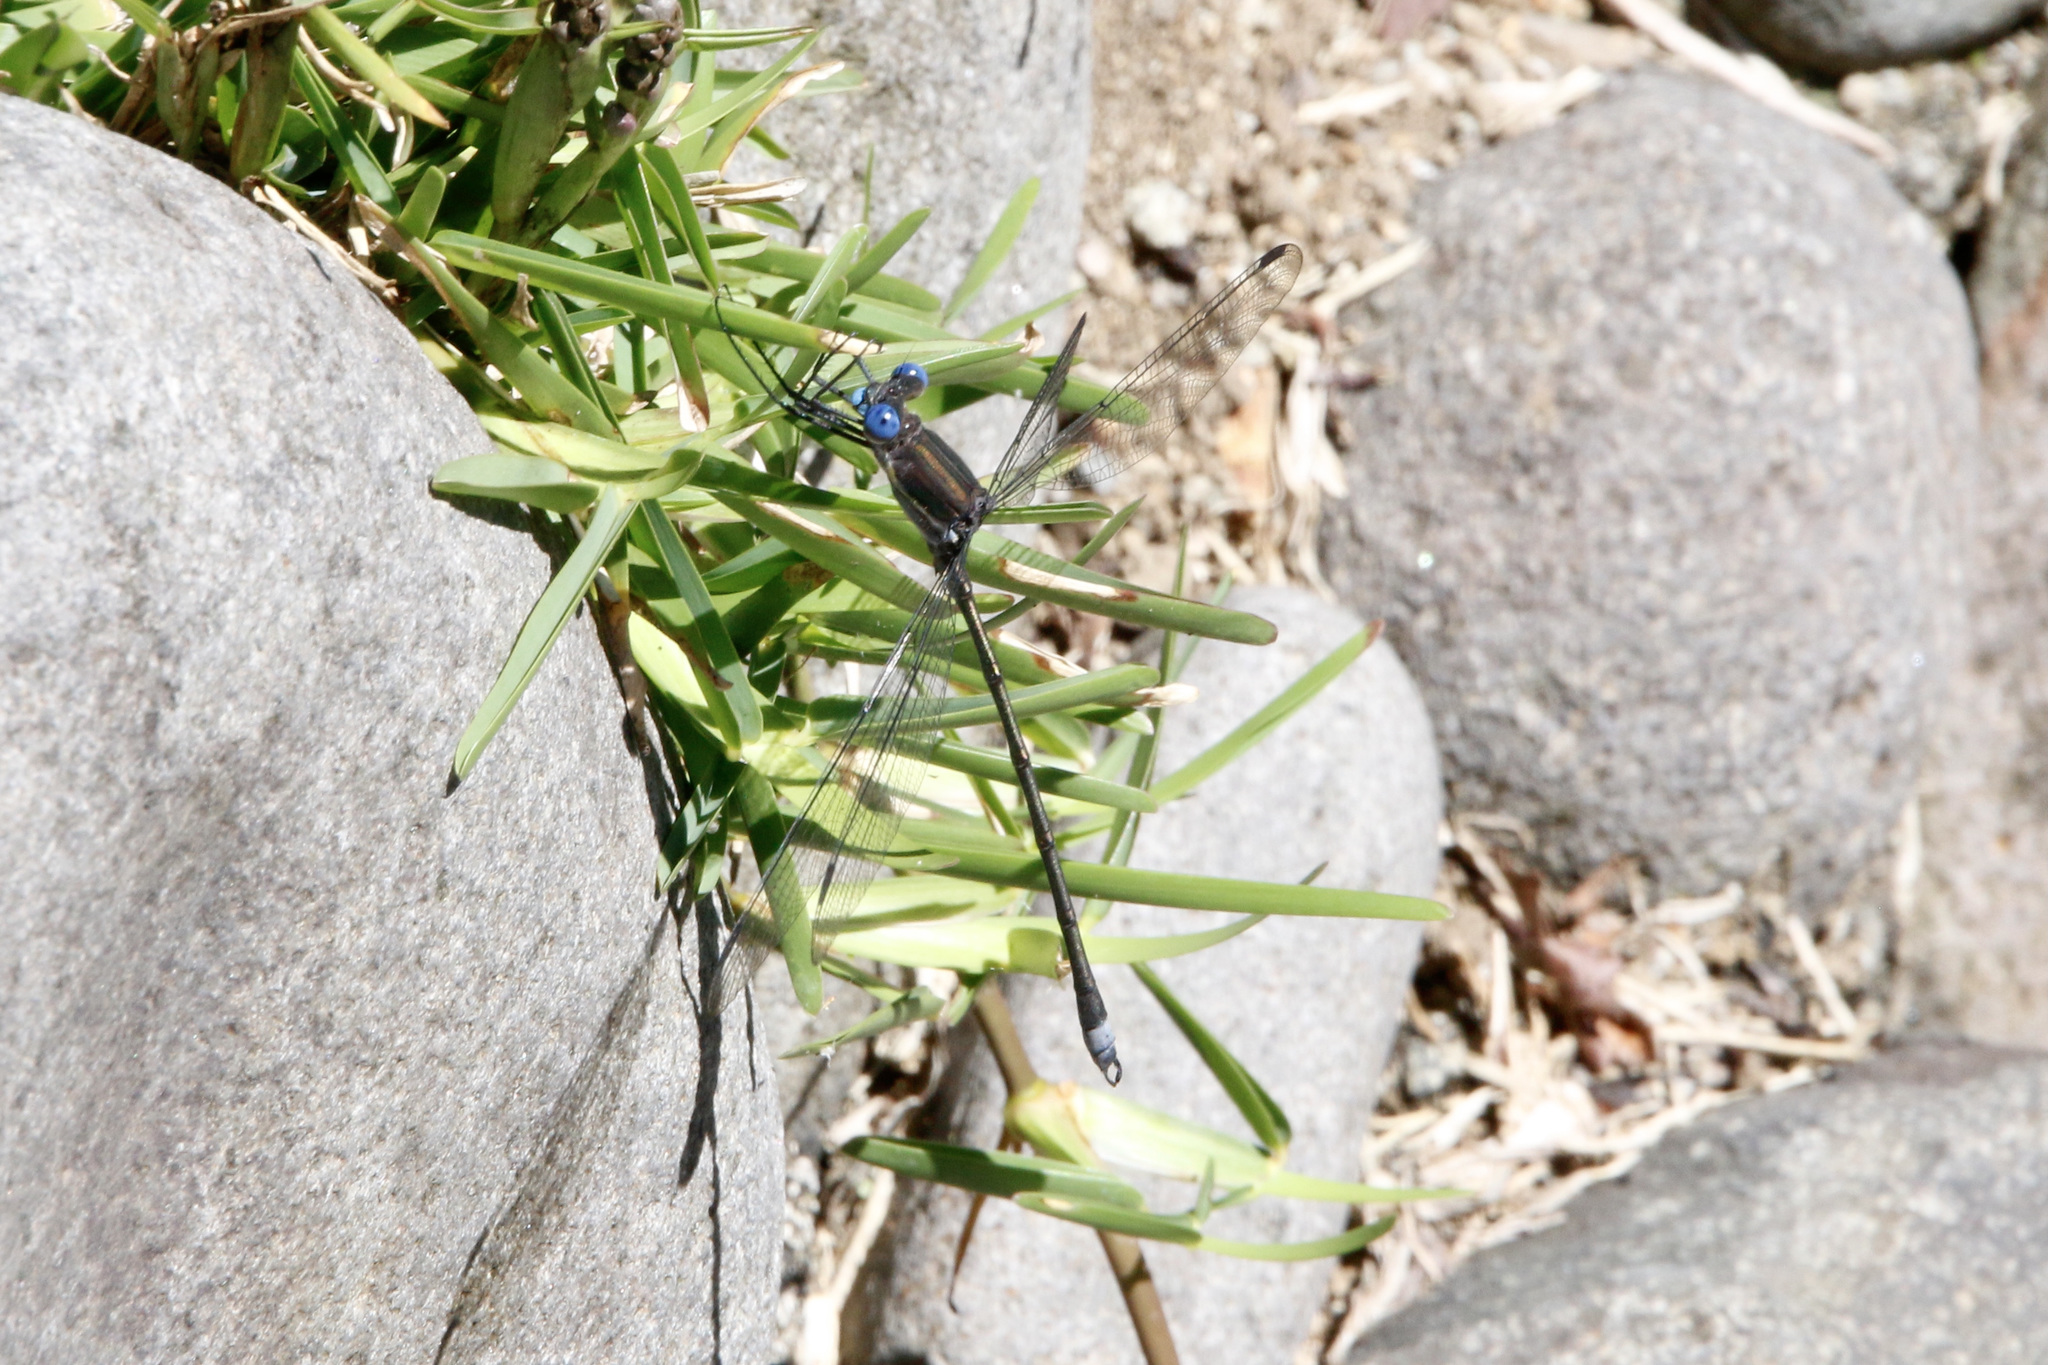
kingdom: Animalia
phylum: Arthropoda
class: Insecta
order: Odonata
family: Lestidae
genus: Archilestes
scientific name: Archilestes grandis
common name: Great spreadwing
